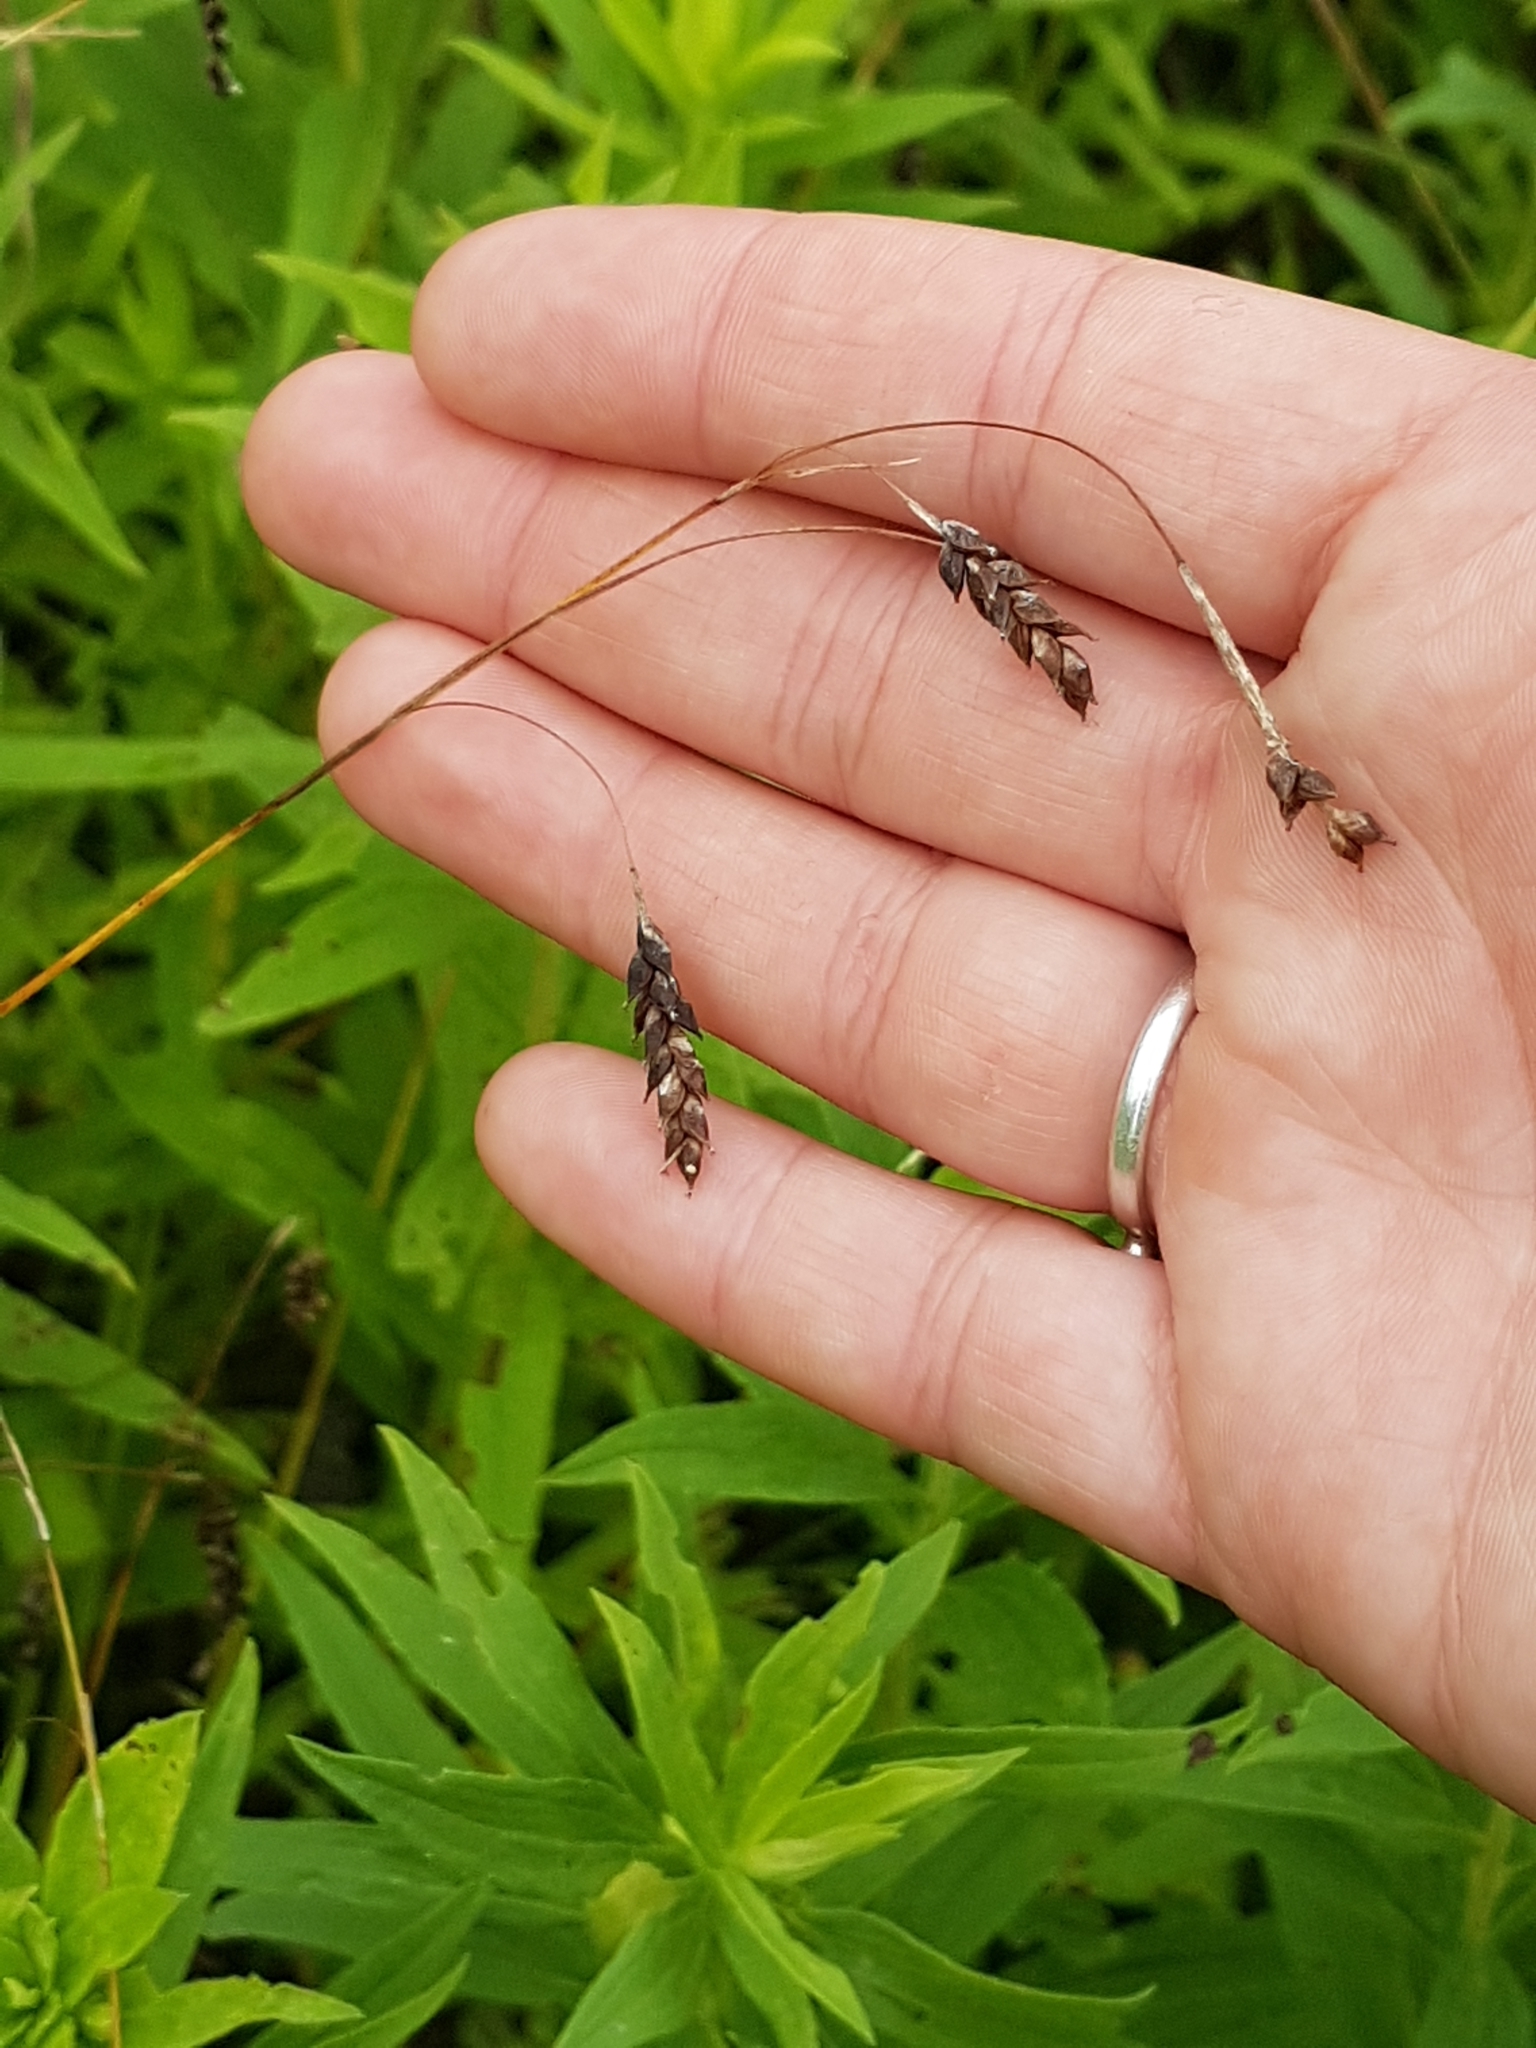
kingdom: Plantae
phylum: Tracheophyta
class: Liliopsida
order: Poales
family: Cyperaceae
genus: Carex
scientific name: Carex formosa
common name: Awnless graceful sedge
